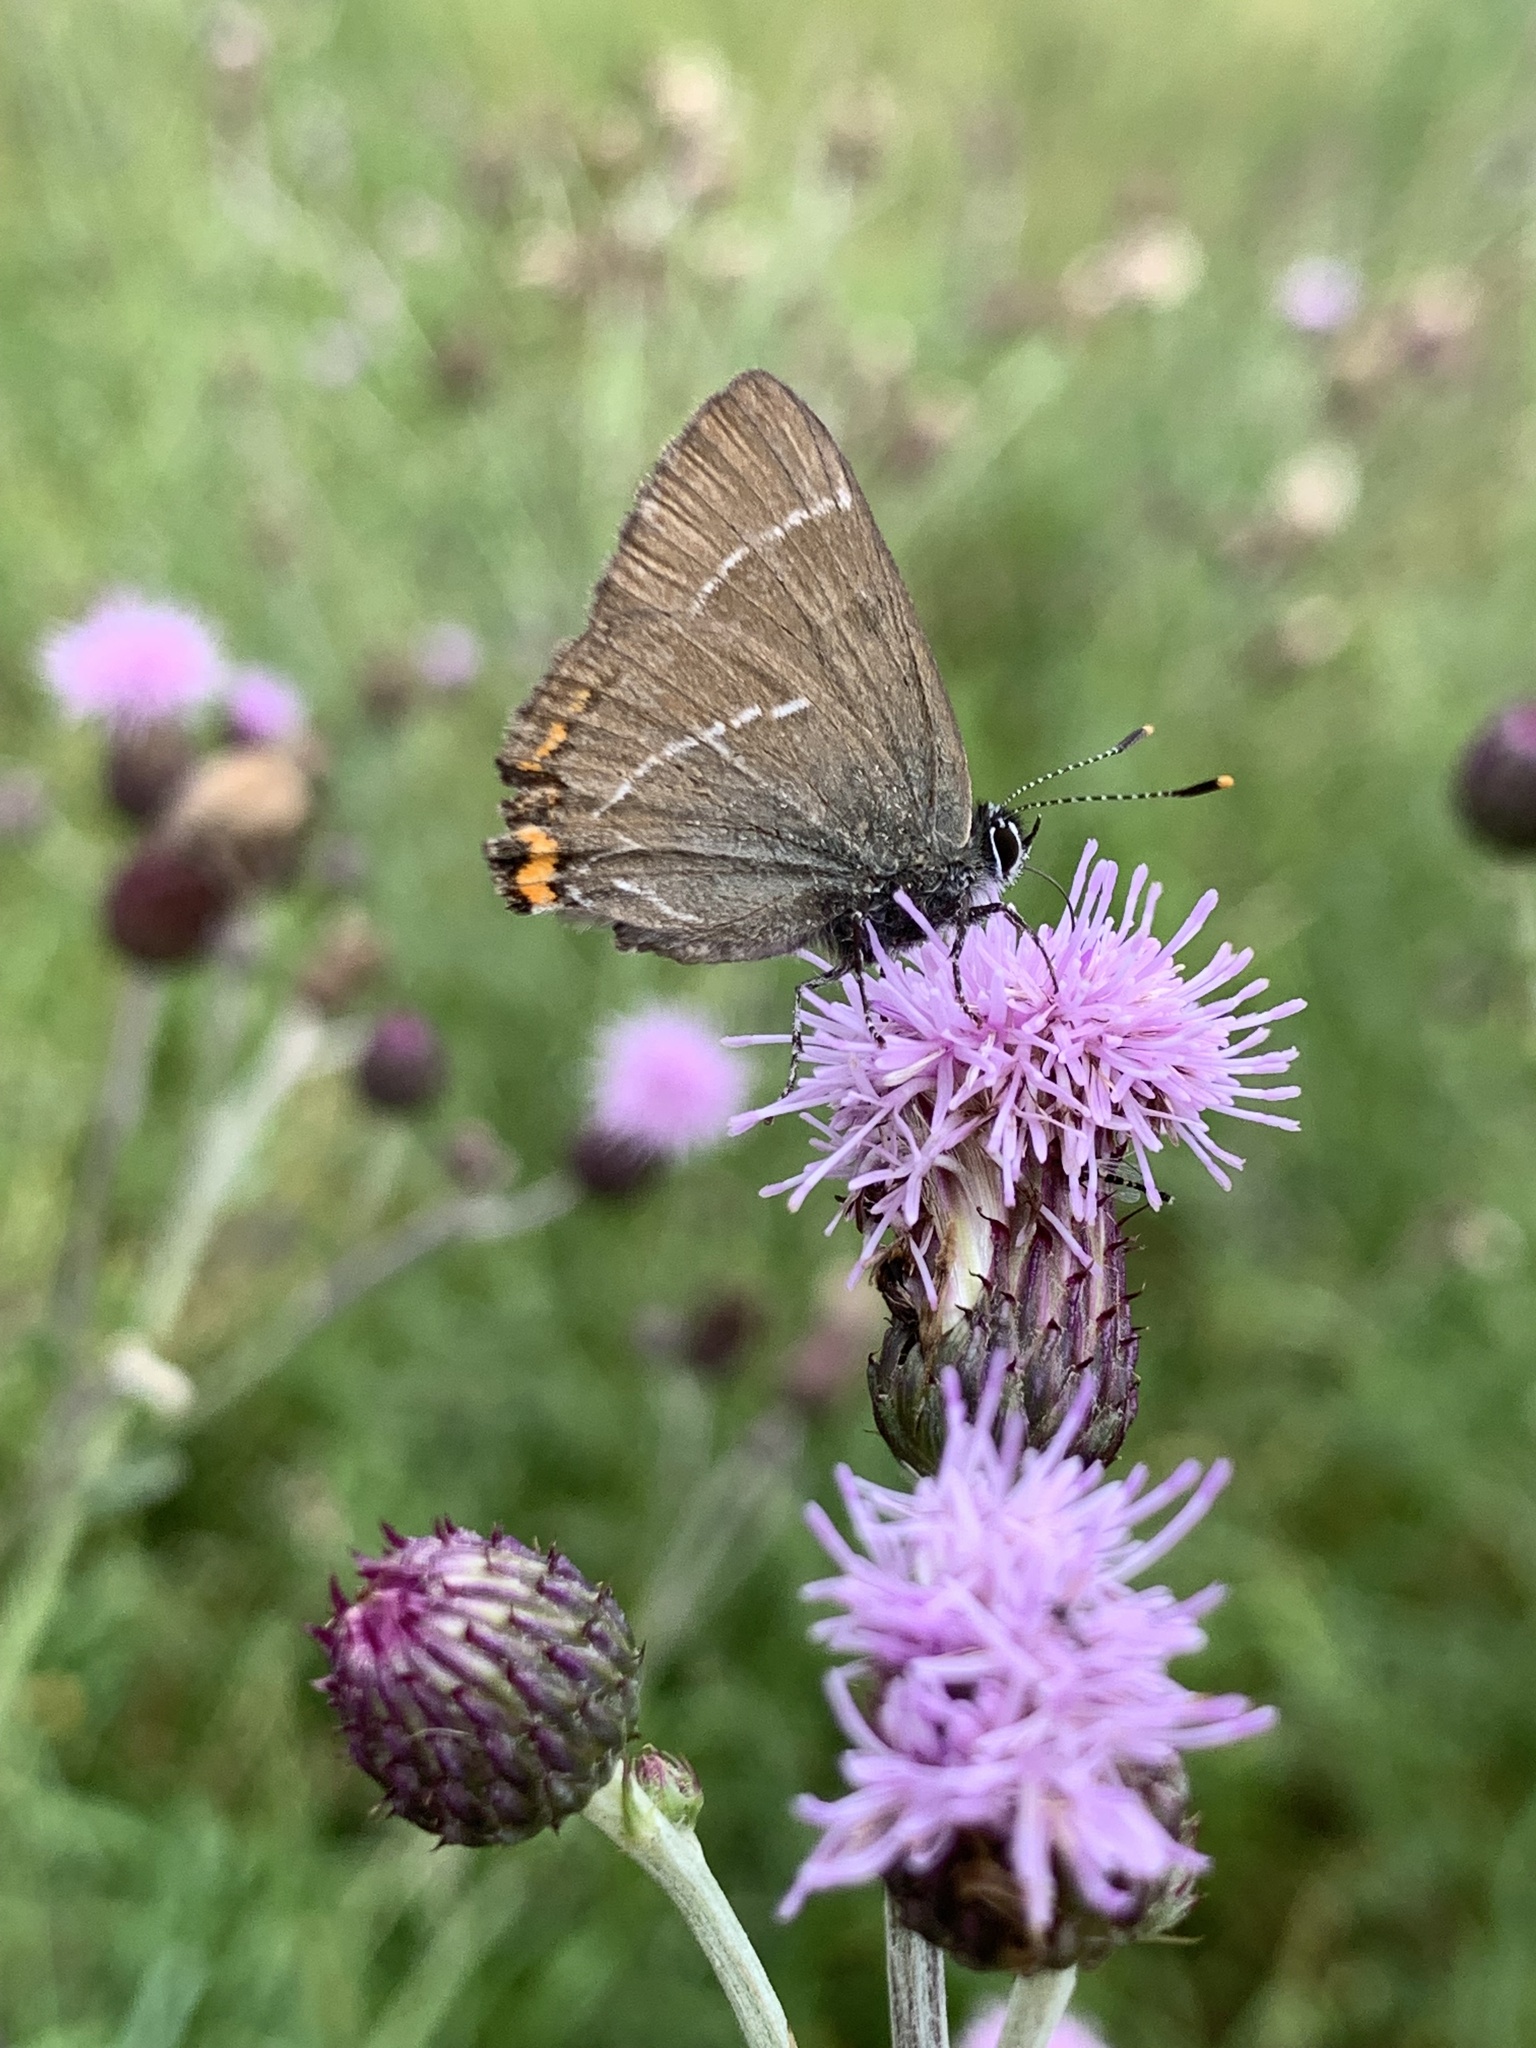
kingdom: Animalia
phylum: Arthropoda
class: Insecta
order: Lepidoptera
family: Lycaenidae
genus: Satyrium
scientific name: Satyrium w-album
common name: White-letter hairstreak
